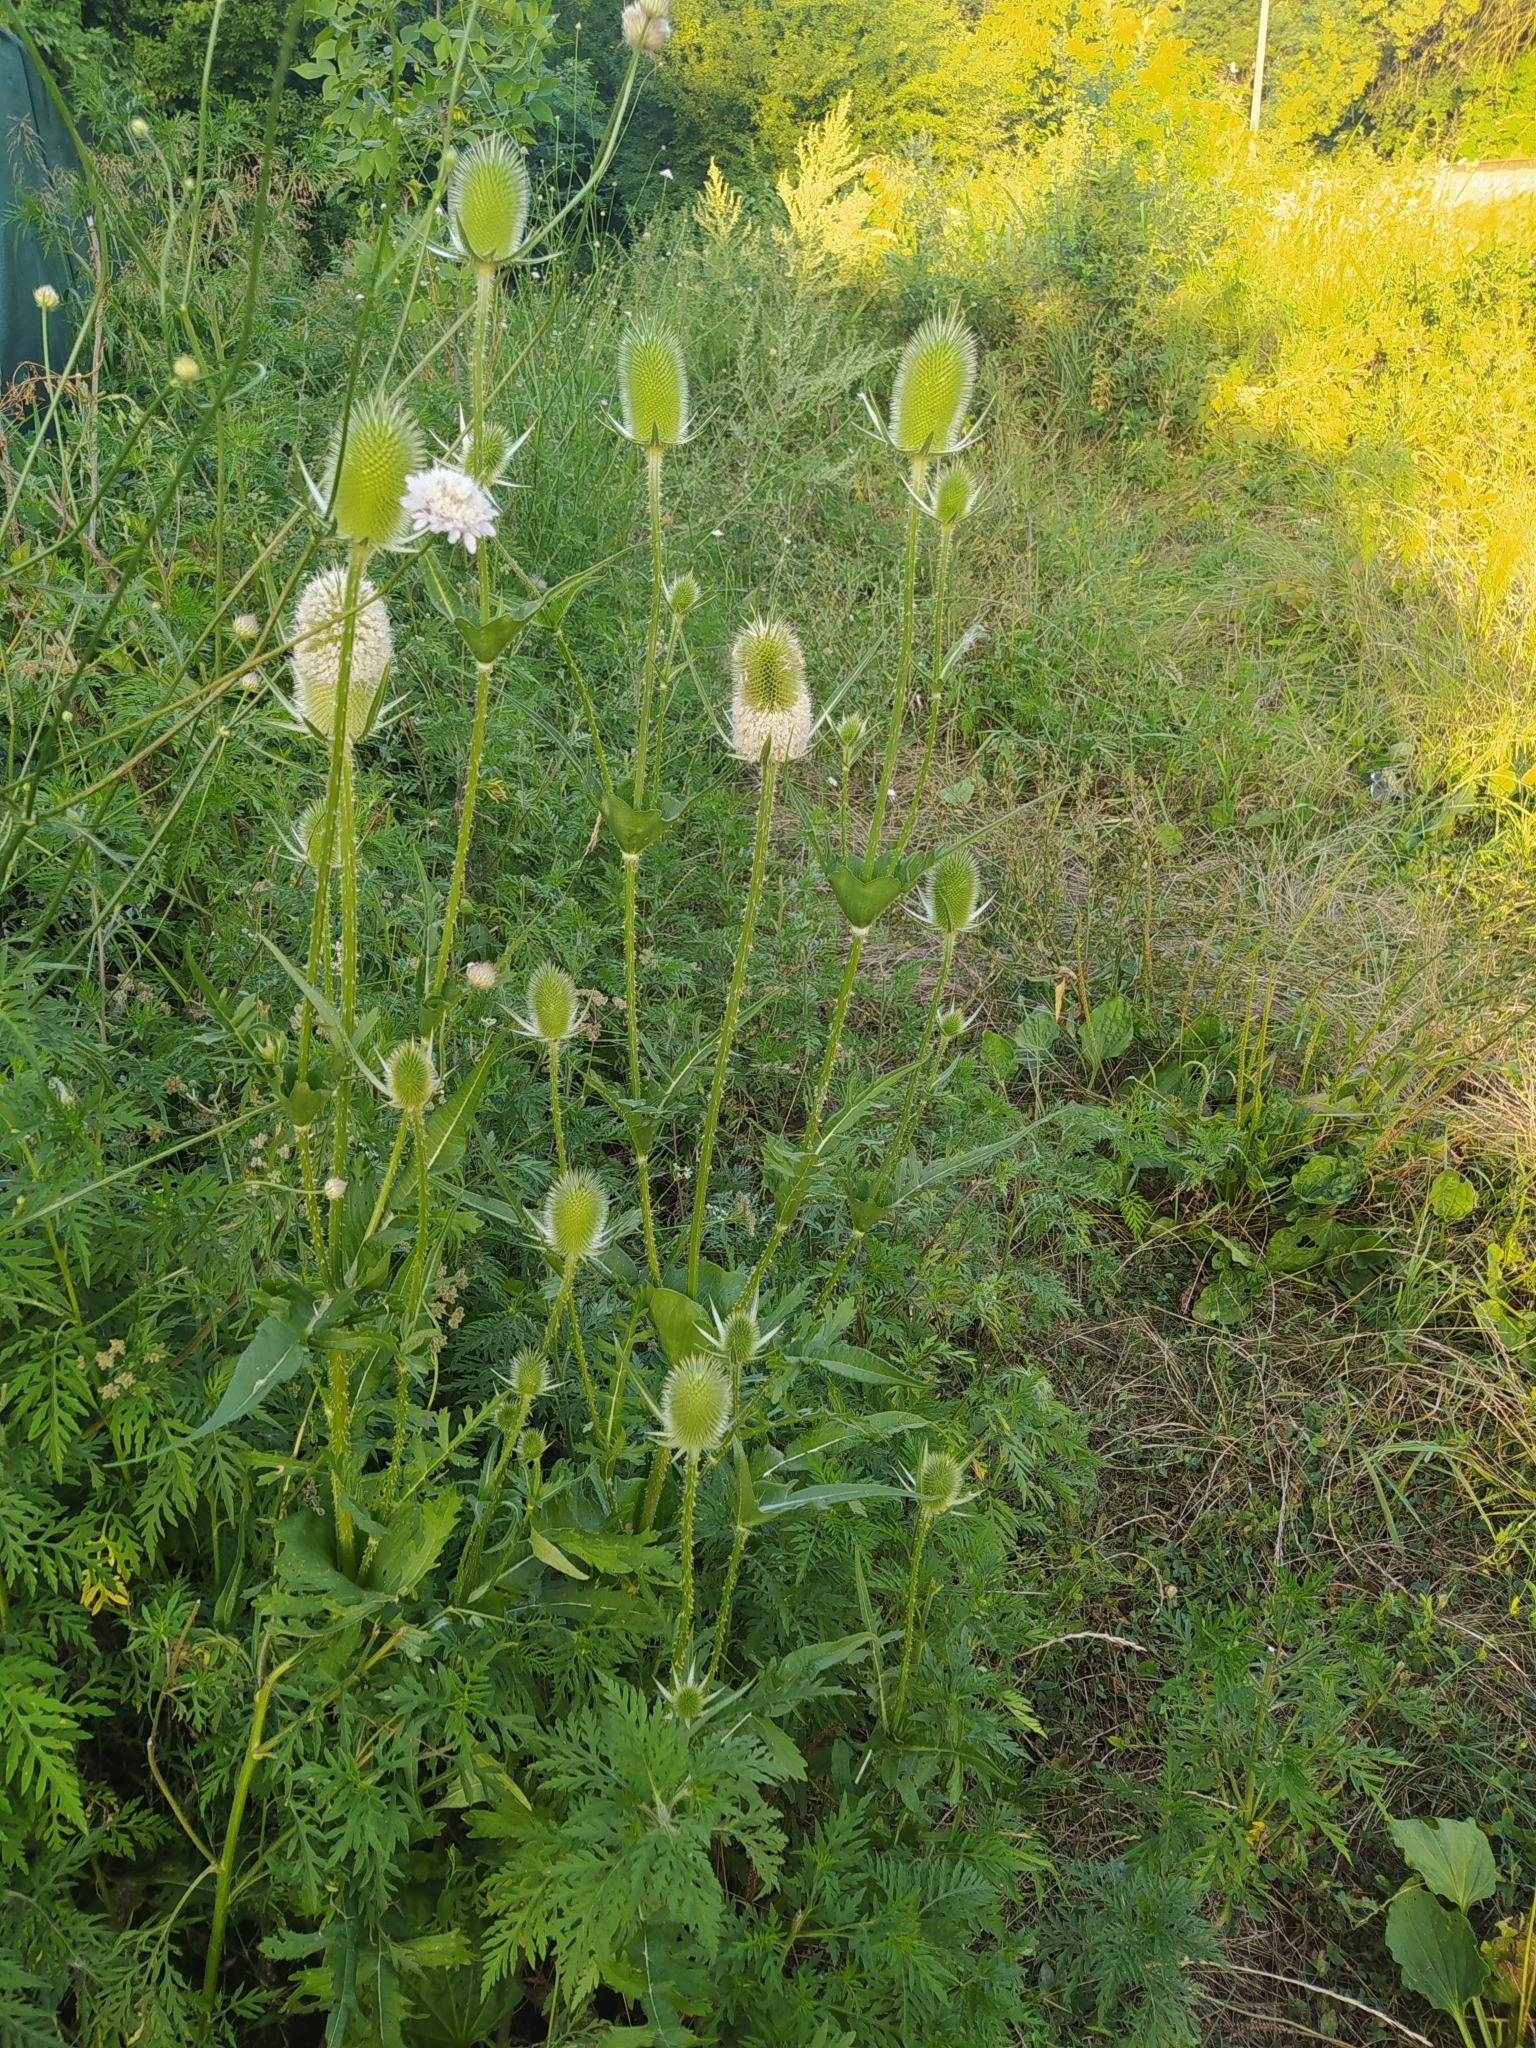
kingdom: Plantae
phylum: Tracheophyta
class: Magnoliopsida
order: Dipsacales
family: Caprifoliaceae
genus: Dipsacus
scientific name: Dipsacus laciniatus
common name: Cut-leaved teasel
